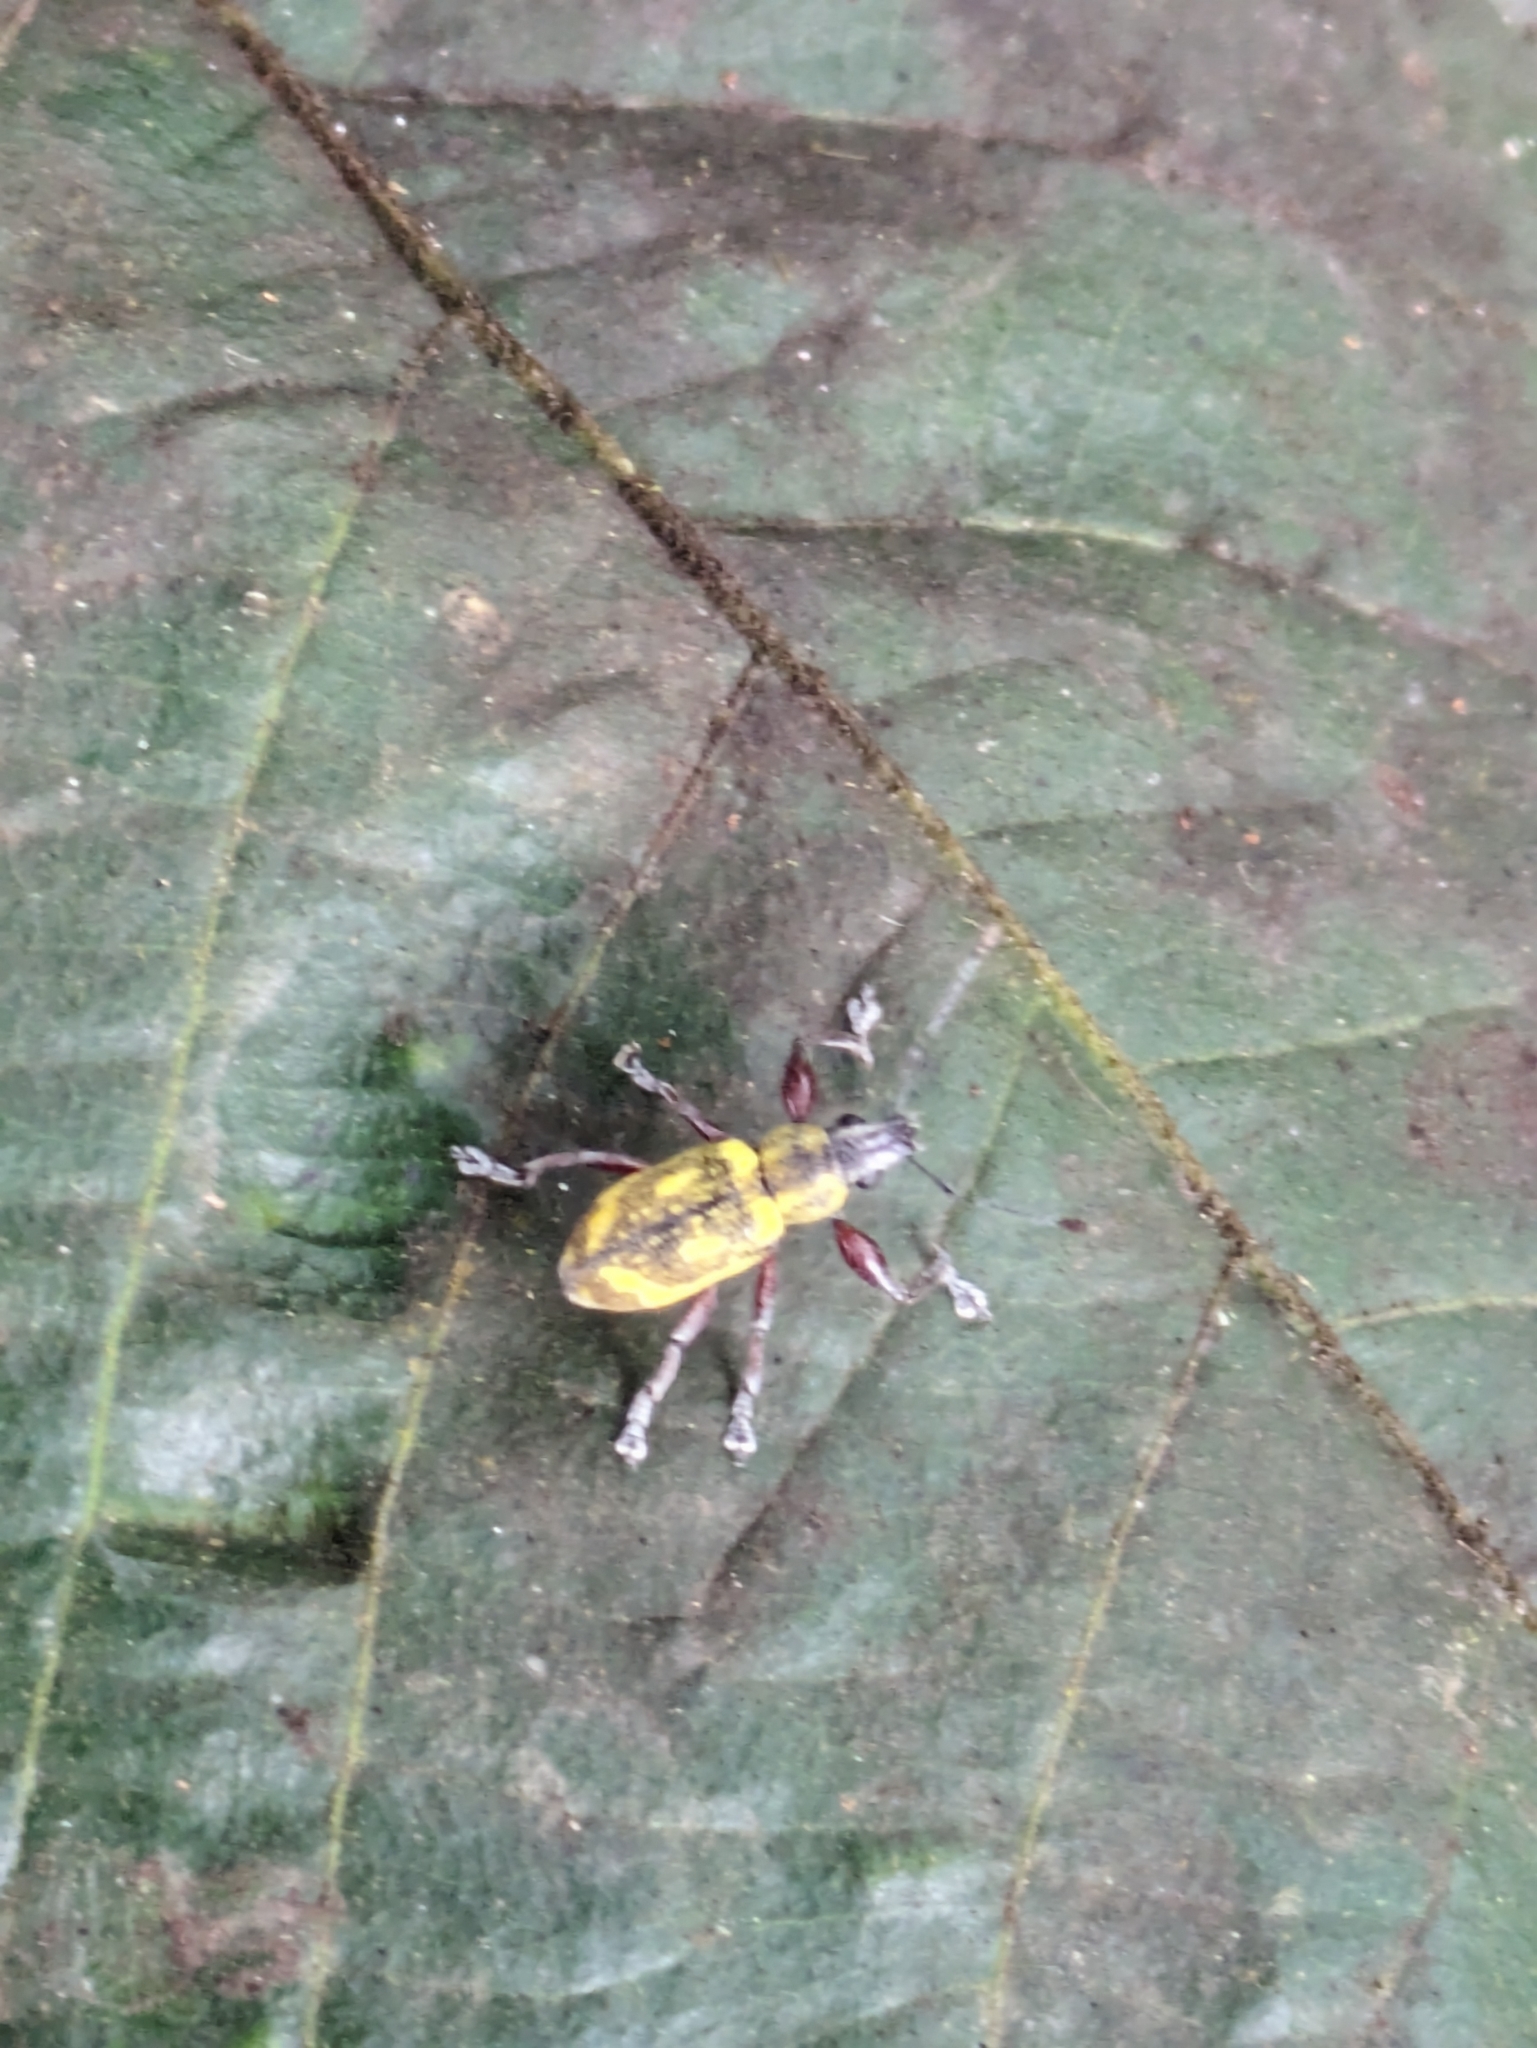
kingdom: Animalia
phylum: Arthropoda
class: Insecta
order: Coleoptera
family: Curculionidae
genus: Galapaganus
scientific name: Galapaganus howdenae
